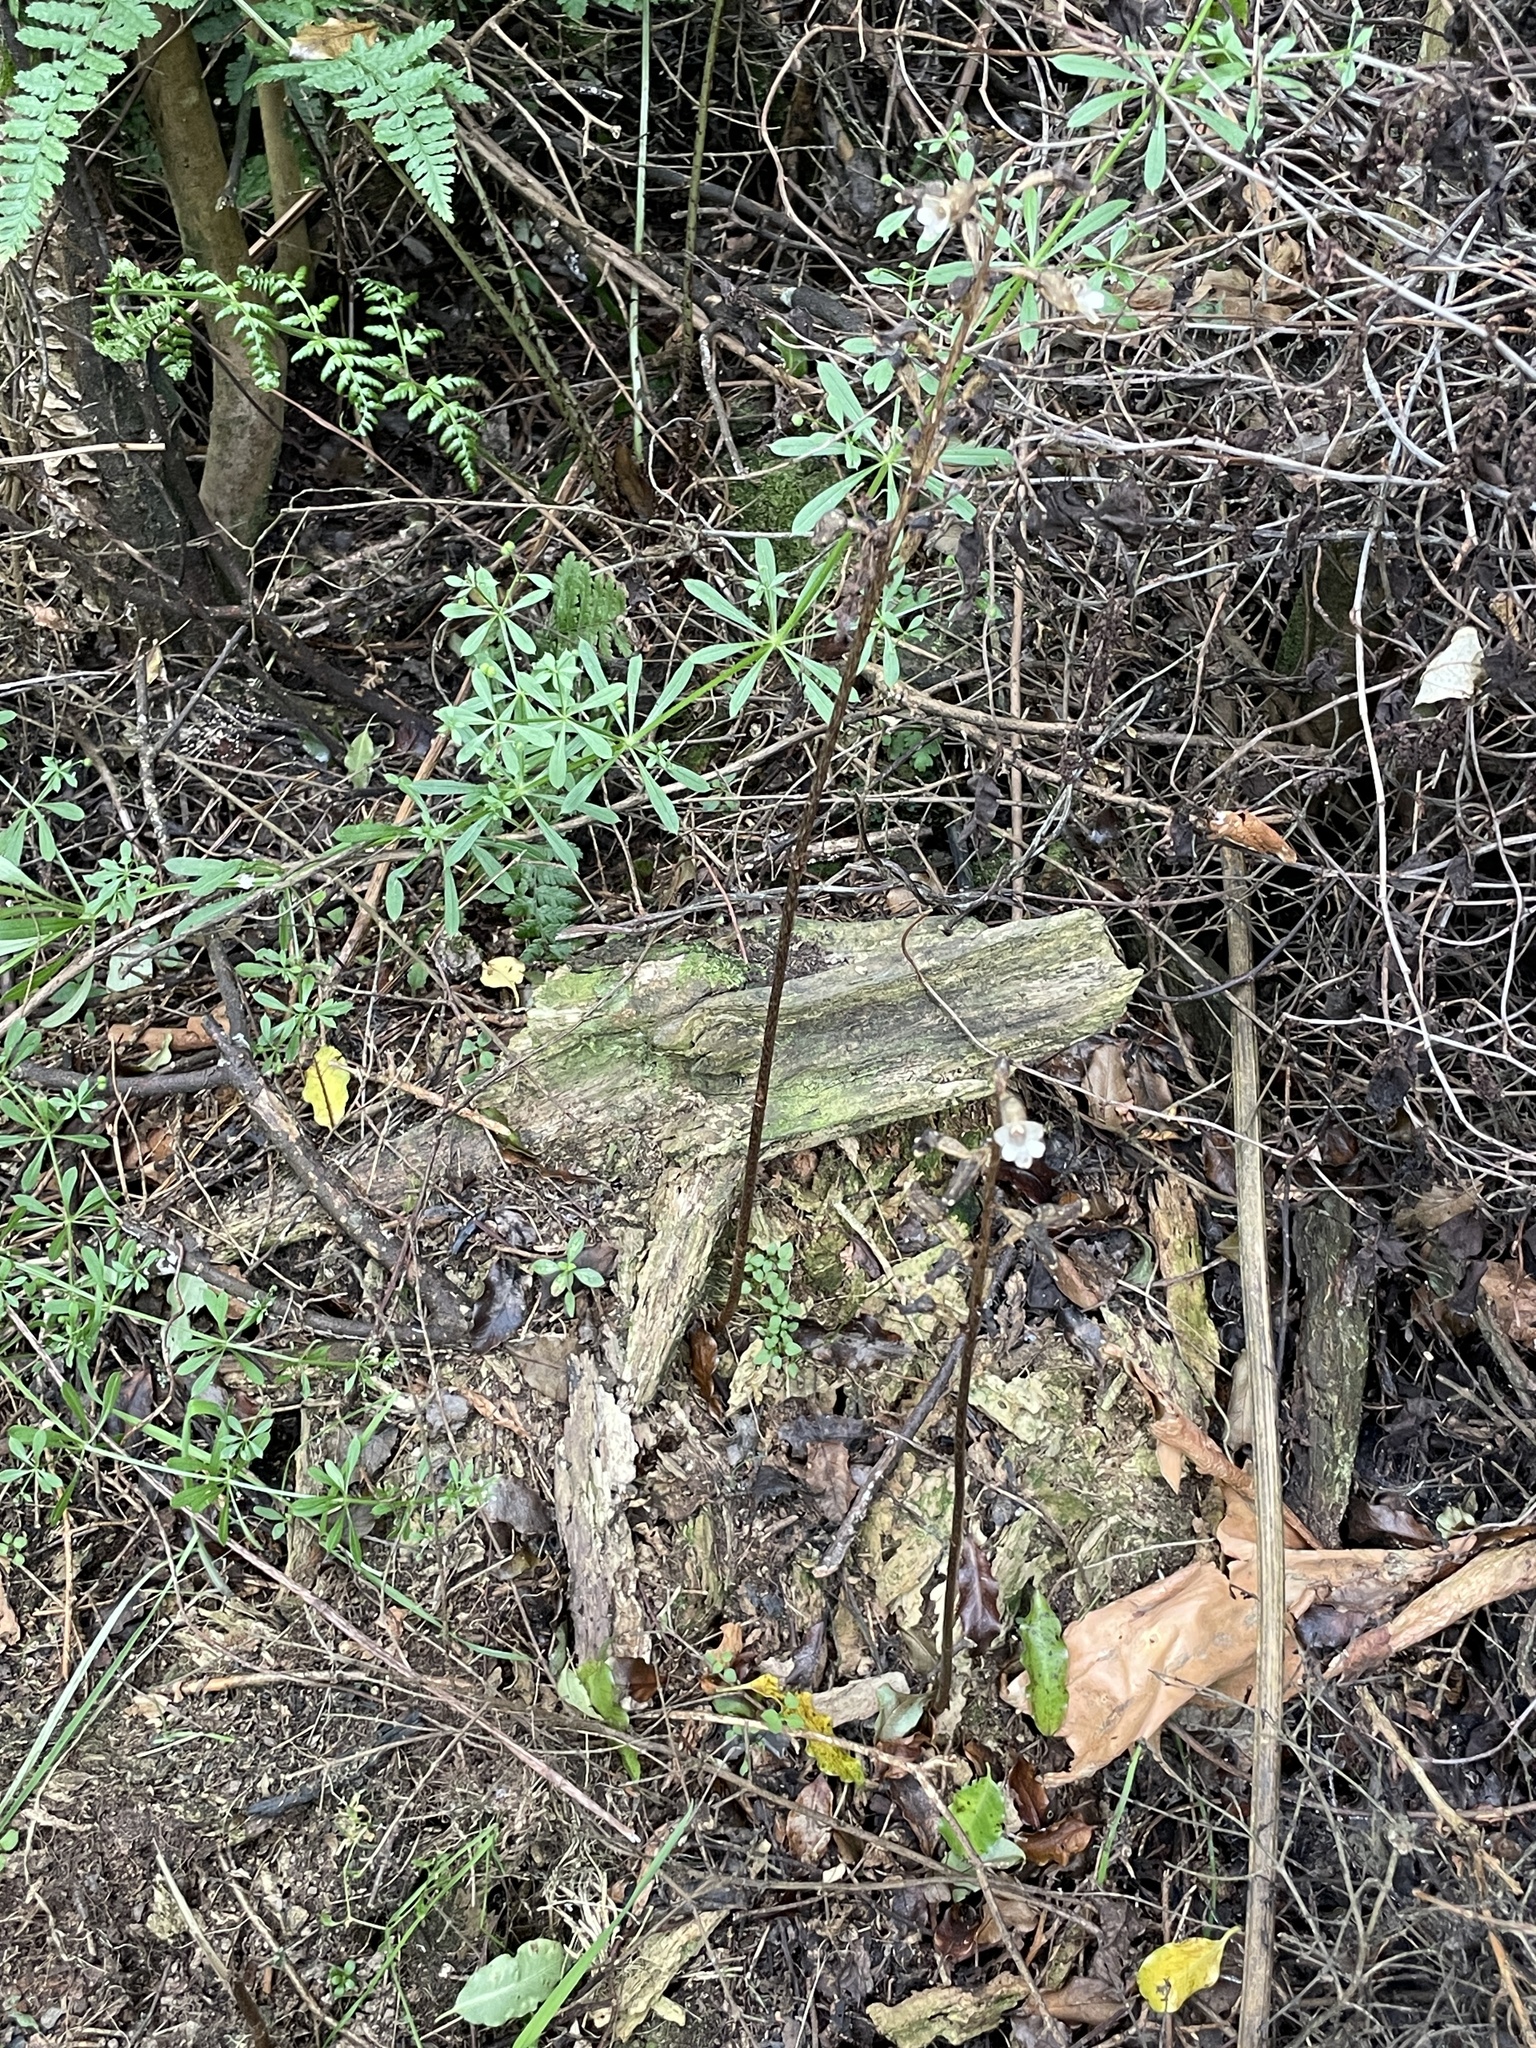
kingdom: Plantae
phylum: Tracheophyta
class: Liliopsida
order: Asparagales
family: Orchidaceae
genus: Gastrodia
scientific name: Gastrodia cunninghamii
